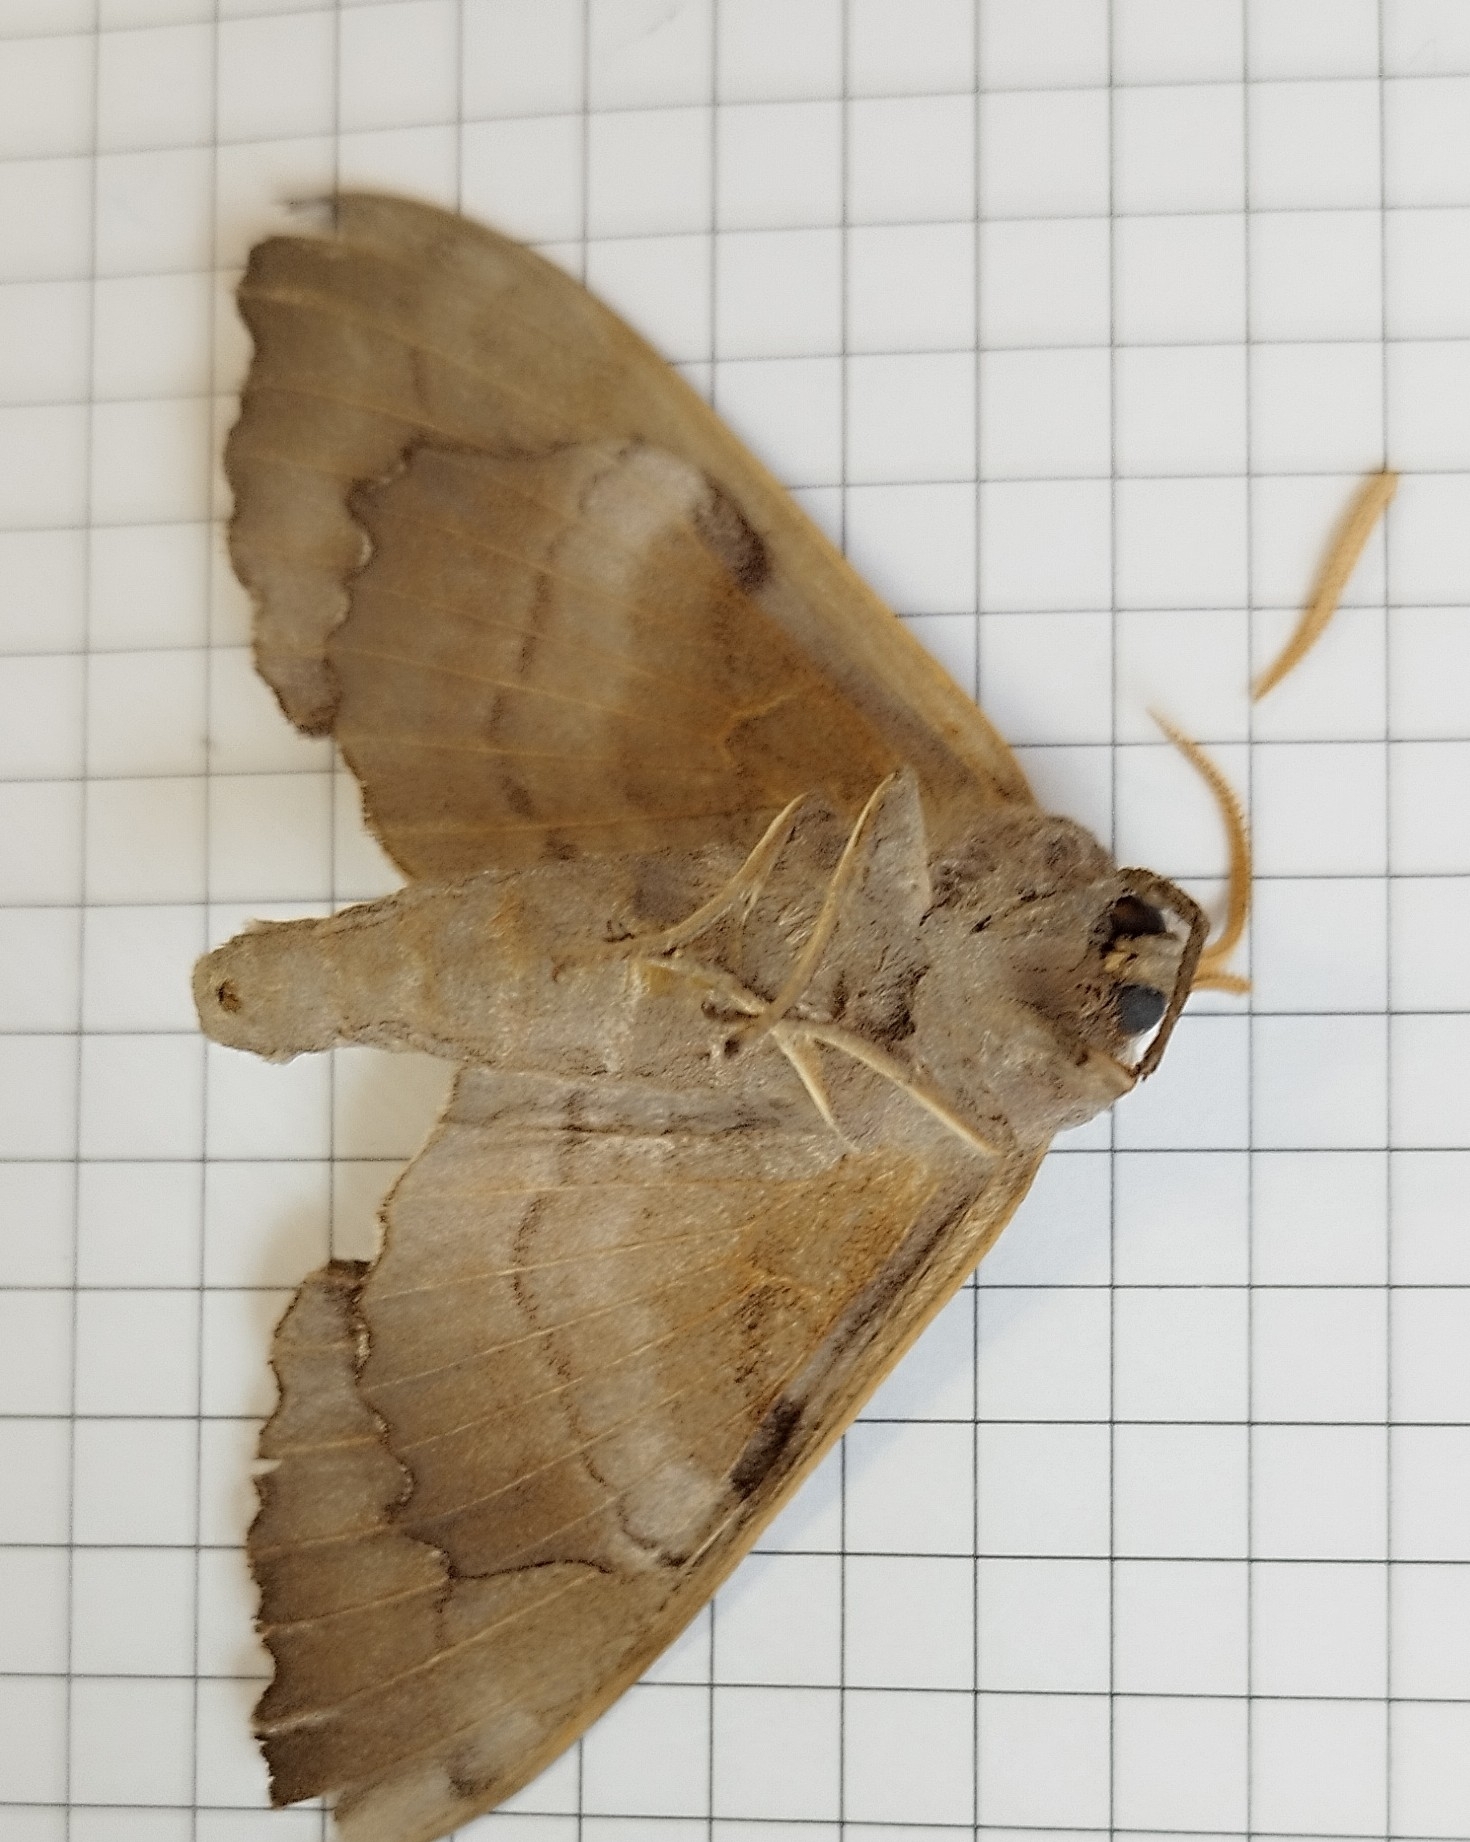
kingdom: Animalia
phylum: Arthropoda
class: Insecta
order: Lepidoptera
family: Sphingidae
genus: Laothoe
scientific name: Laothoe populi
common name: Poplar hawk-moth
